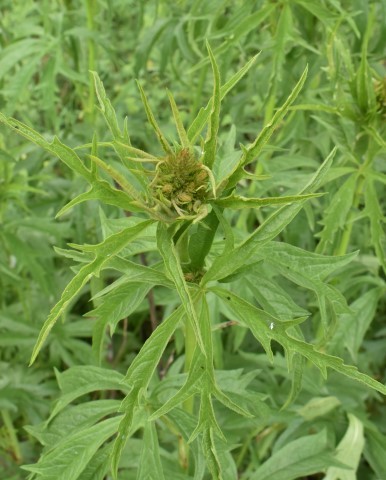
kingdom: Plantae
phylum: Tracheophyta
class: Magnoliopsida
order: Malvales
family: Malvaceae
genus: Sidalcea
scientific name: Sidalcea cusickii
